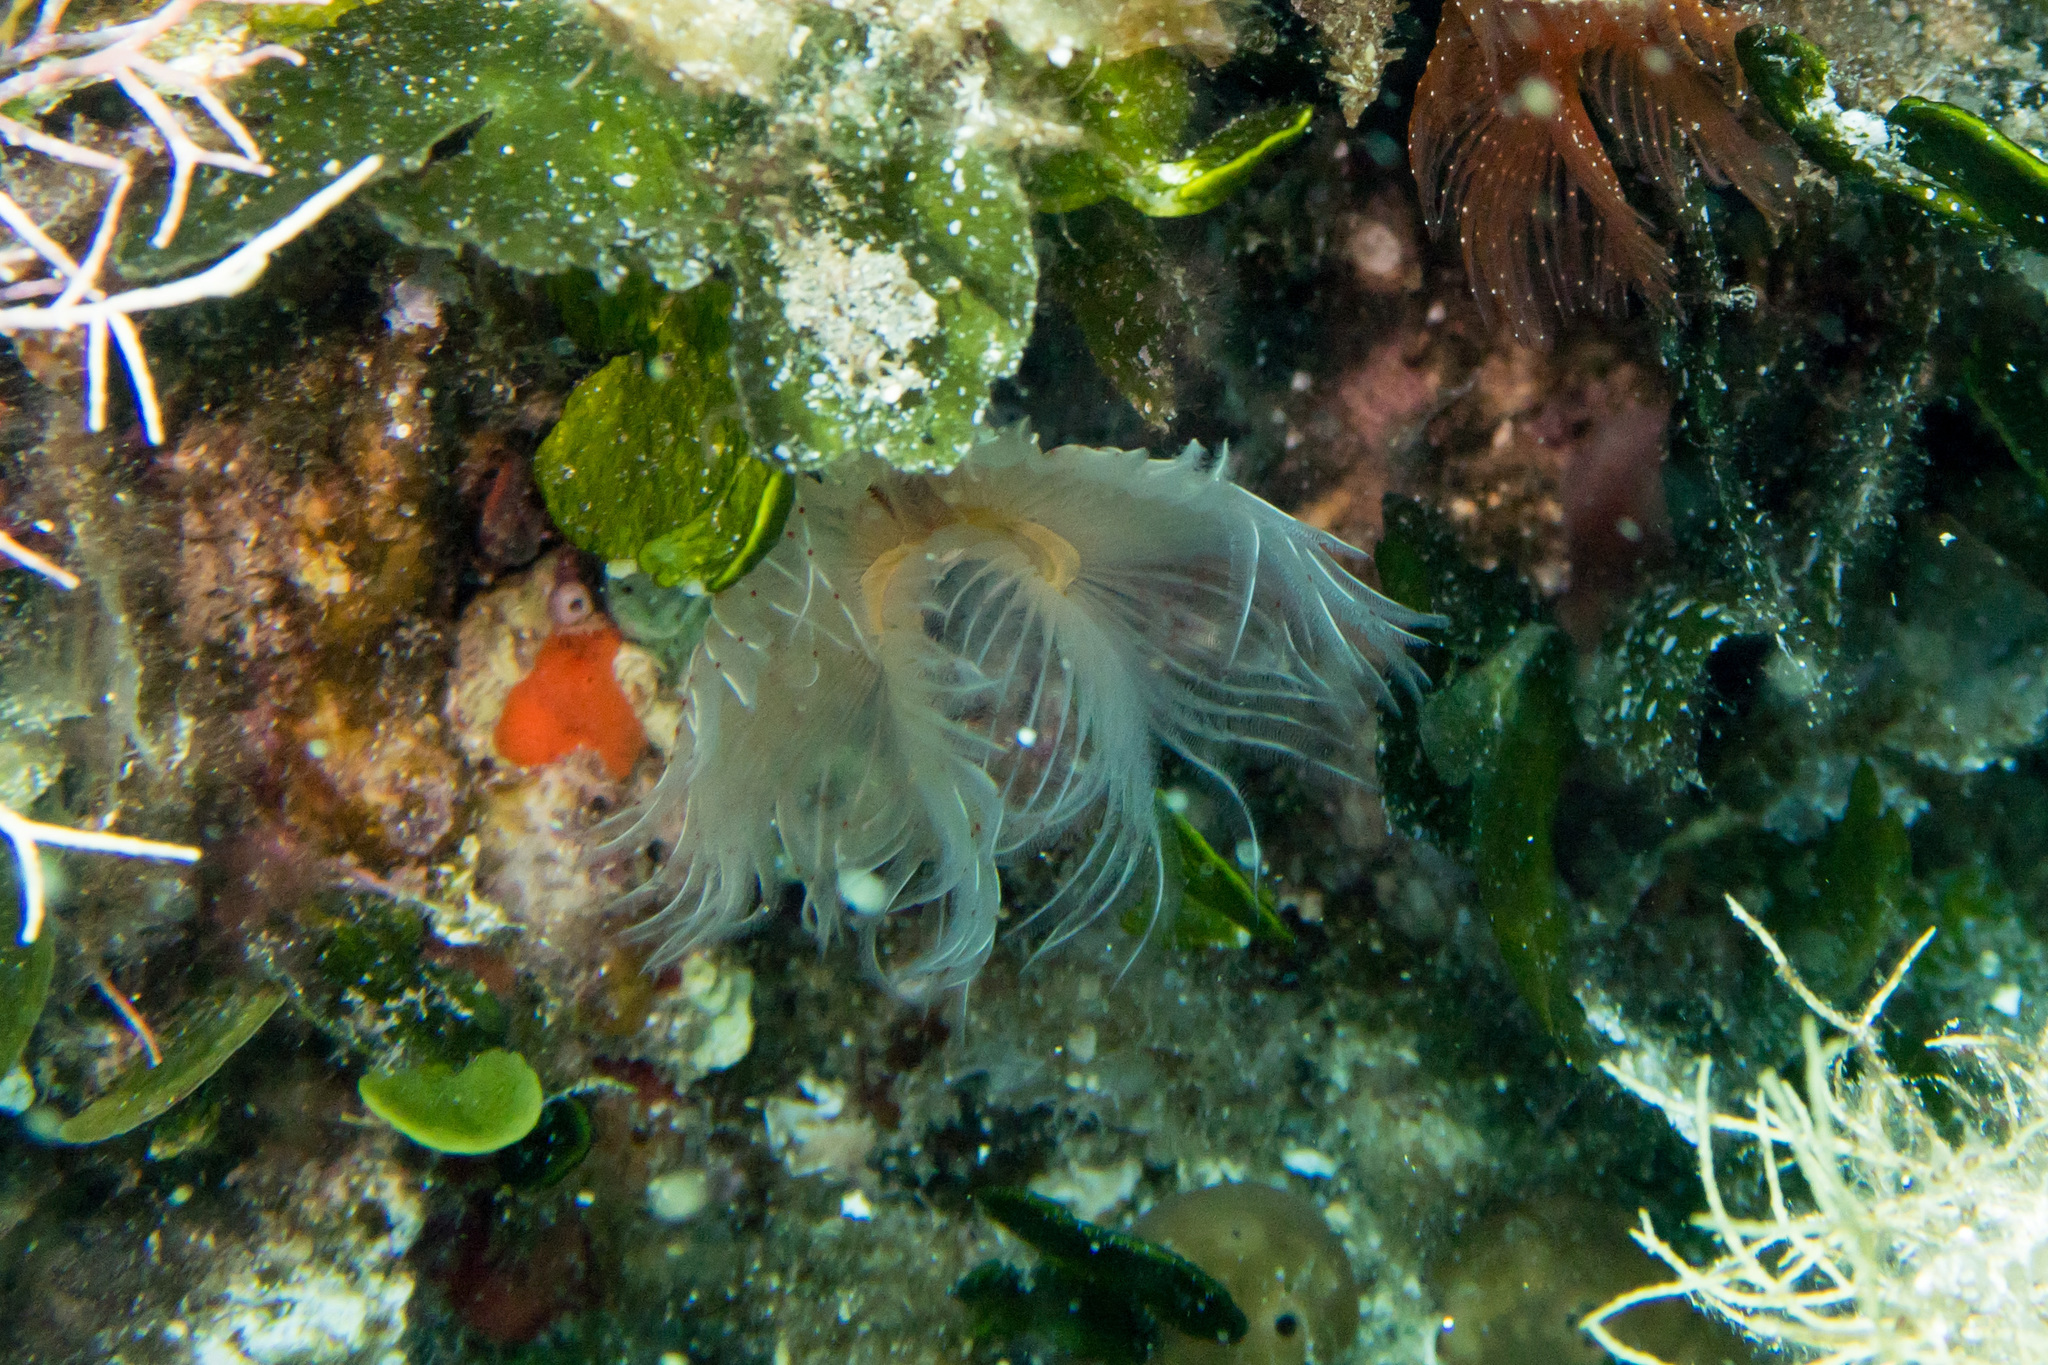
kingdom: Animalia
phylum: Annelida
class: Polychaeta
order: Sabellida
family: Serpulidae
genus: Protula
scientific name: Protula tubularia
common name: Red-spotted horseshoe
